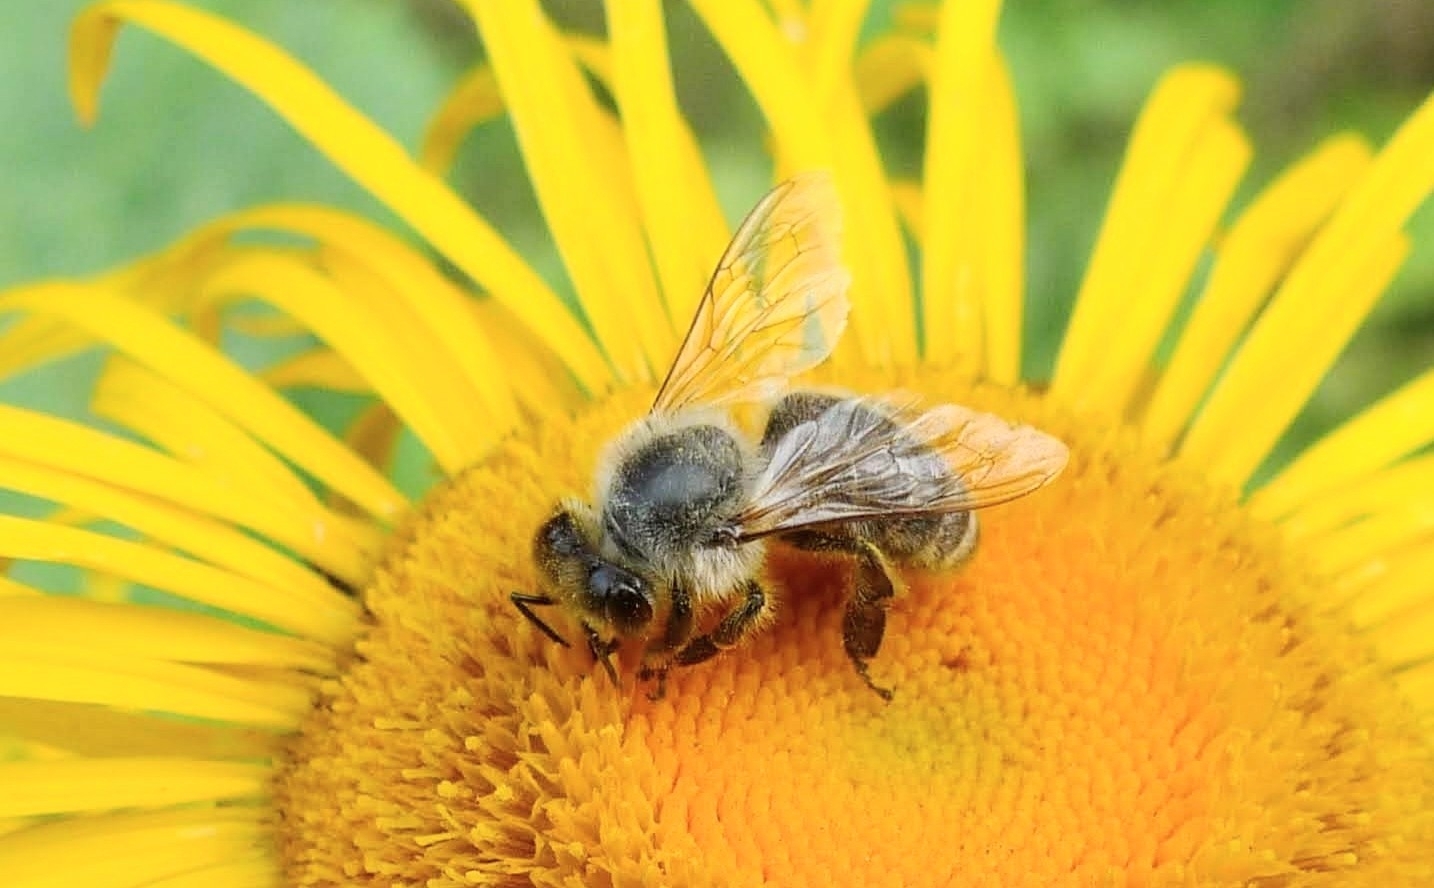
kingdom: Animalia
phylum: Arthropoda
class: Insecta
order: Hymenoptera
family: Apidae
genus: Apis
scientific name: Apis mellifera
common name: Honey bee
